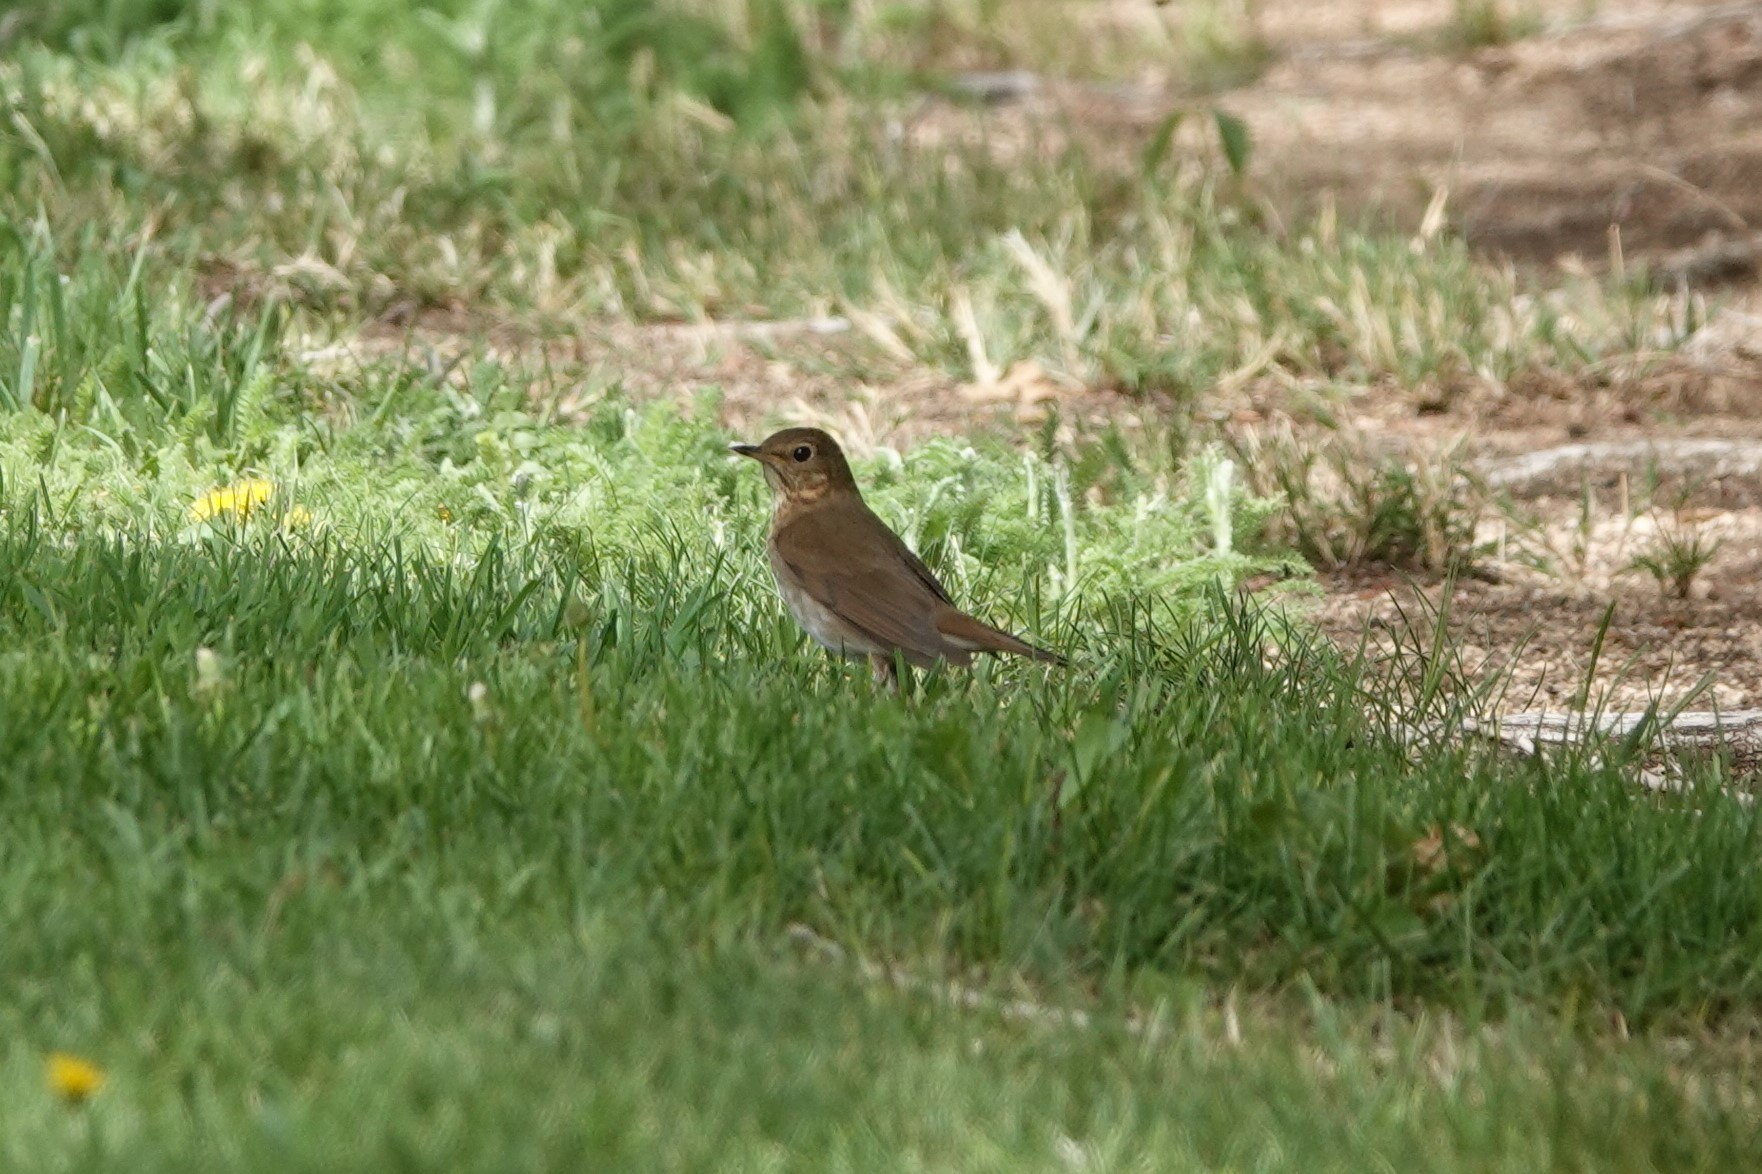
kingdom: Animalia
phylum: Chordata
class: Aves
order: Passeriformes
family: Turdidae
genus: Catharus
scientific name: Catharus ustulatus
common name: Swainson's thrush
